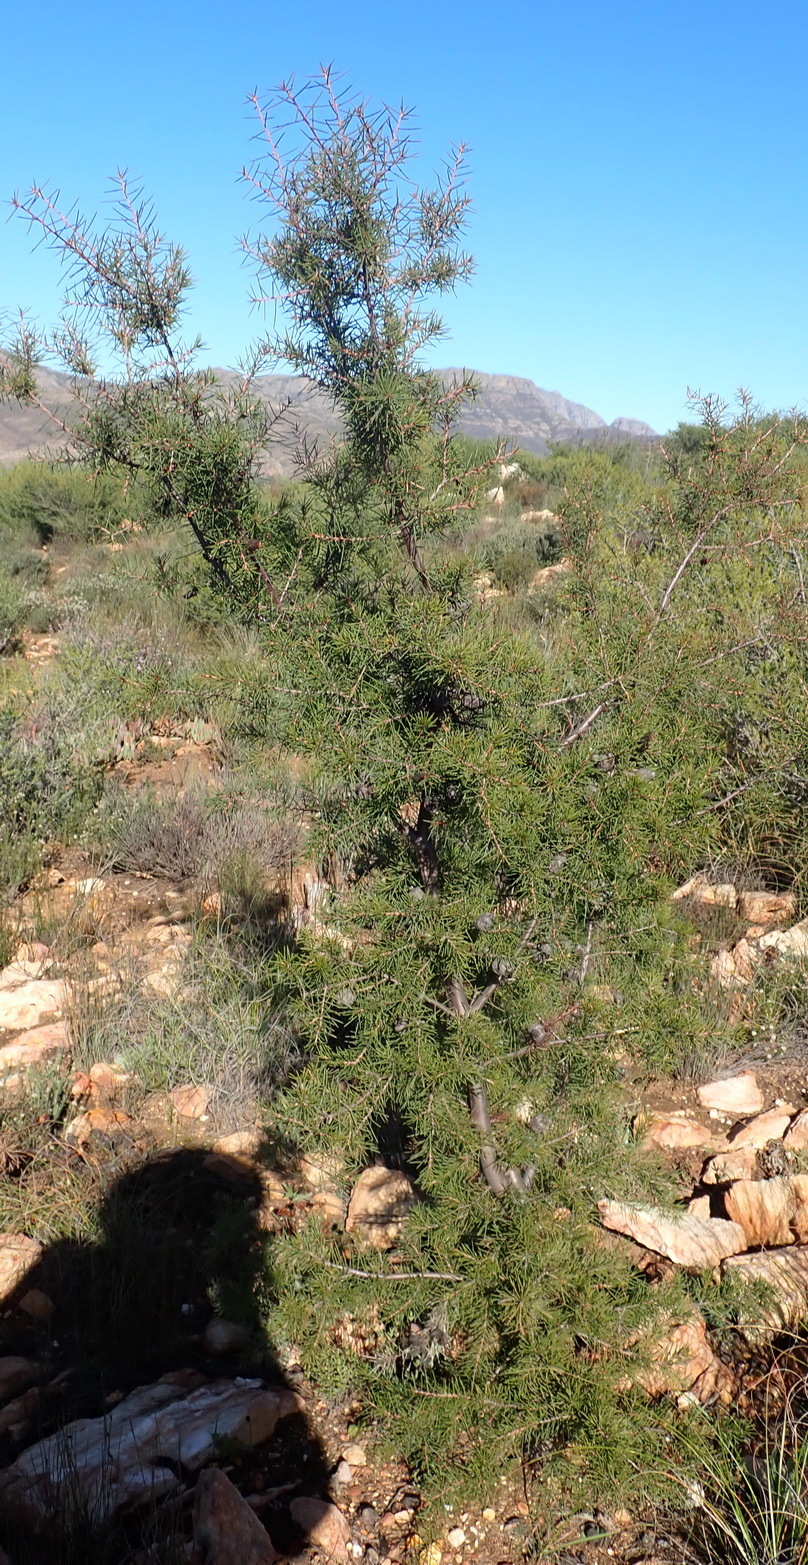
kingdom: Plantae
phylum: Tracheophyta
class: Magnoliopsida
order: Proteales
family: Proteaceae
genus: Hakea
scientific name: Hakea sericea
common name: Needle bush
